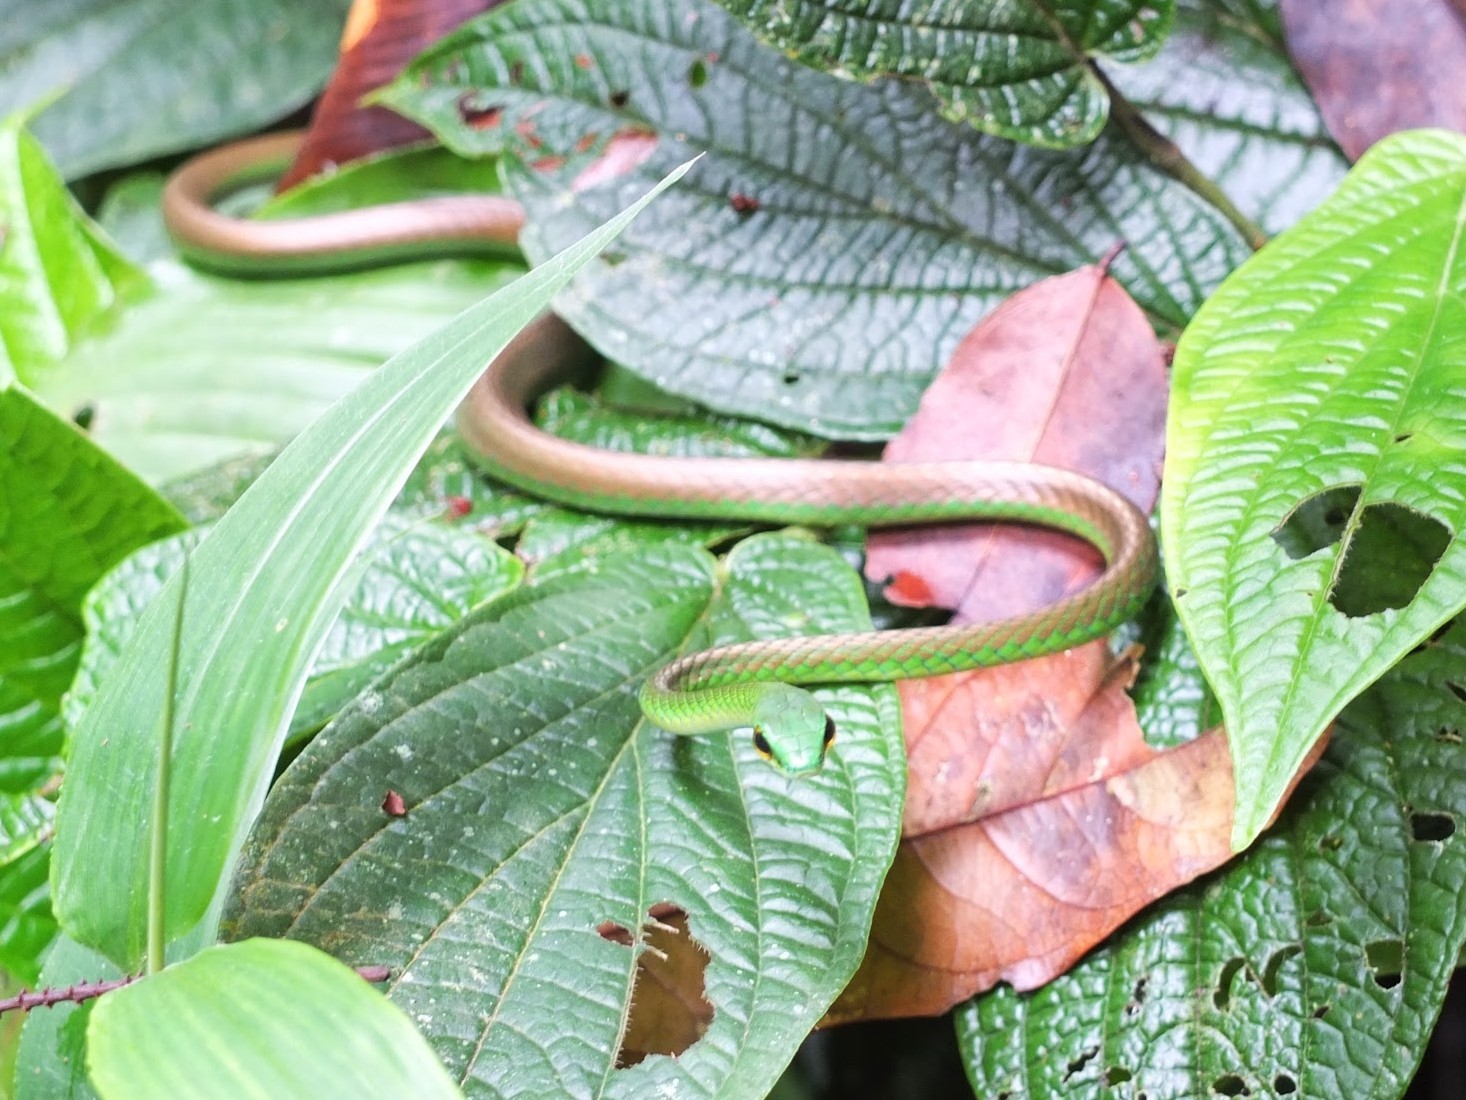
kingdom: Animalia
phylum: Chordata
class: Squamata
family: Colubridae
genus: Leptophis
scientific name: Leptophis depressirostris
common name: Cope's parrot snake
